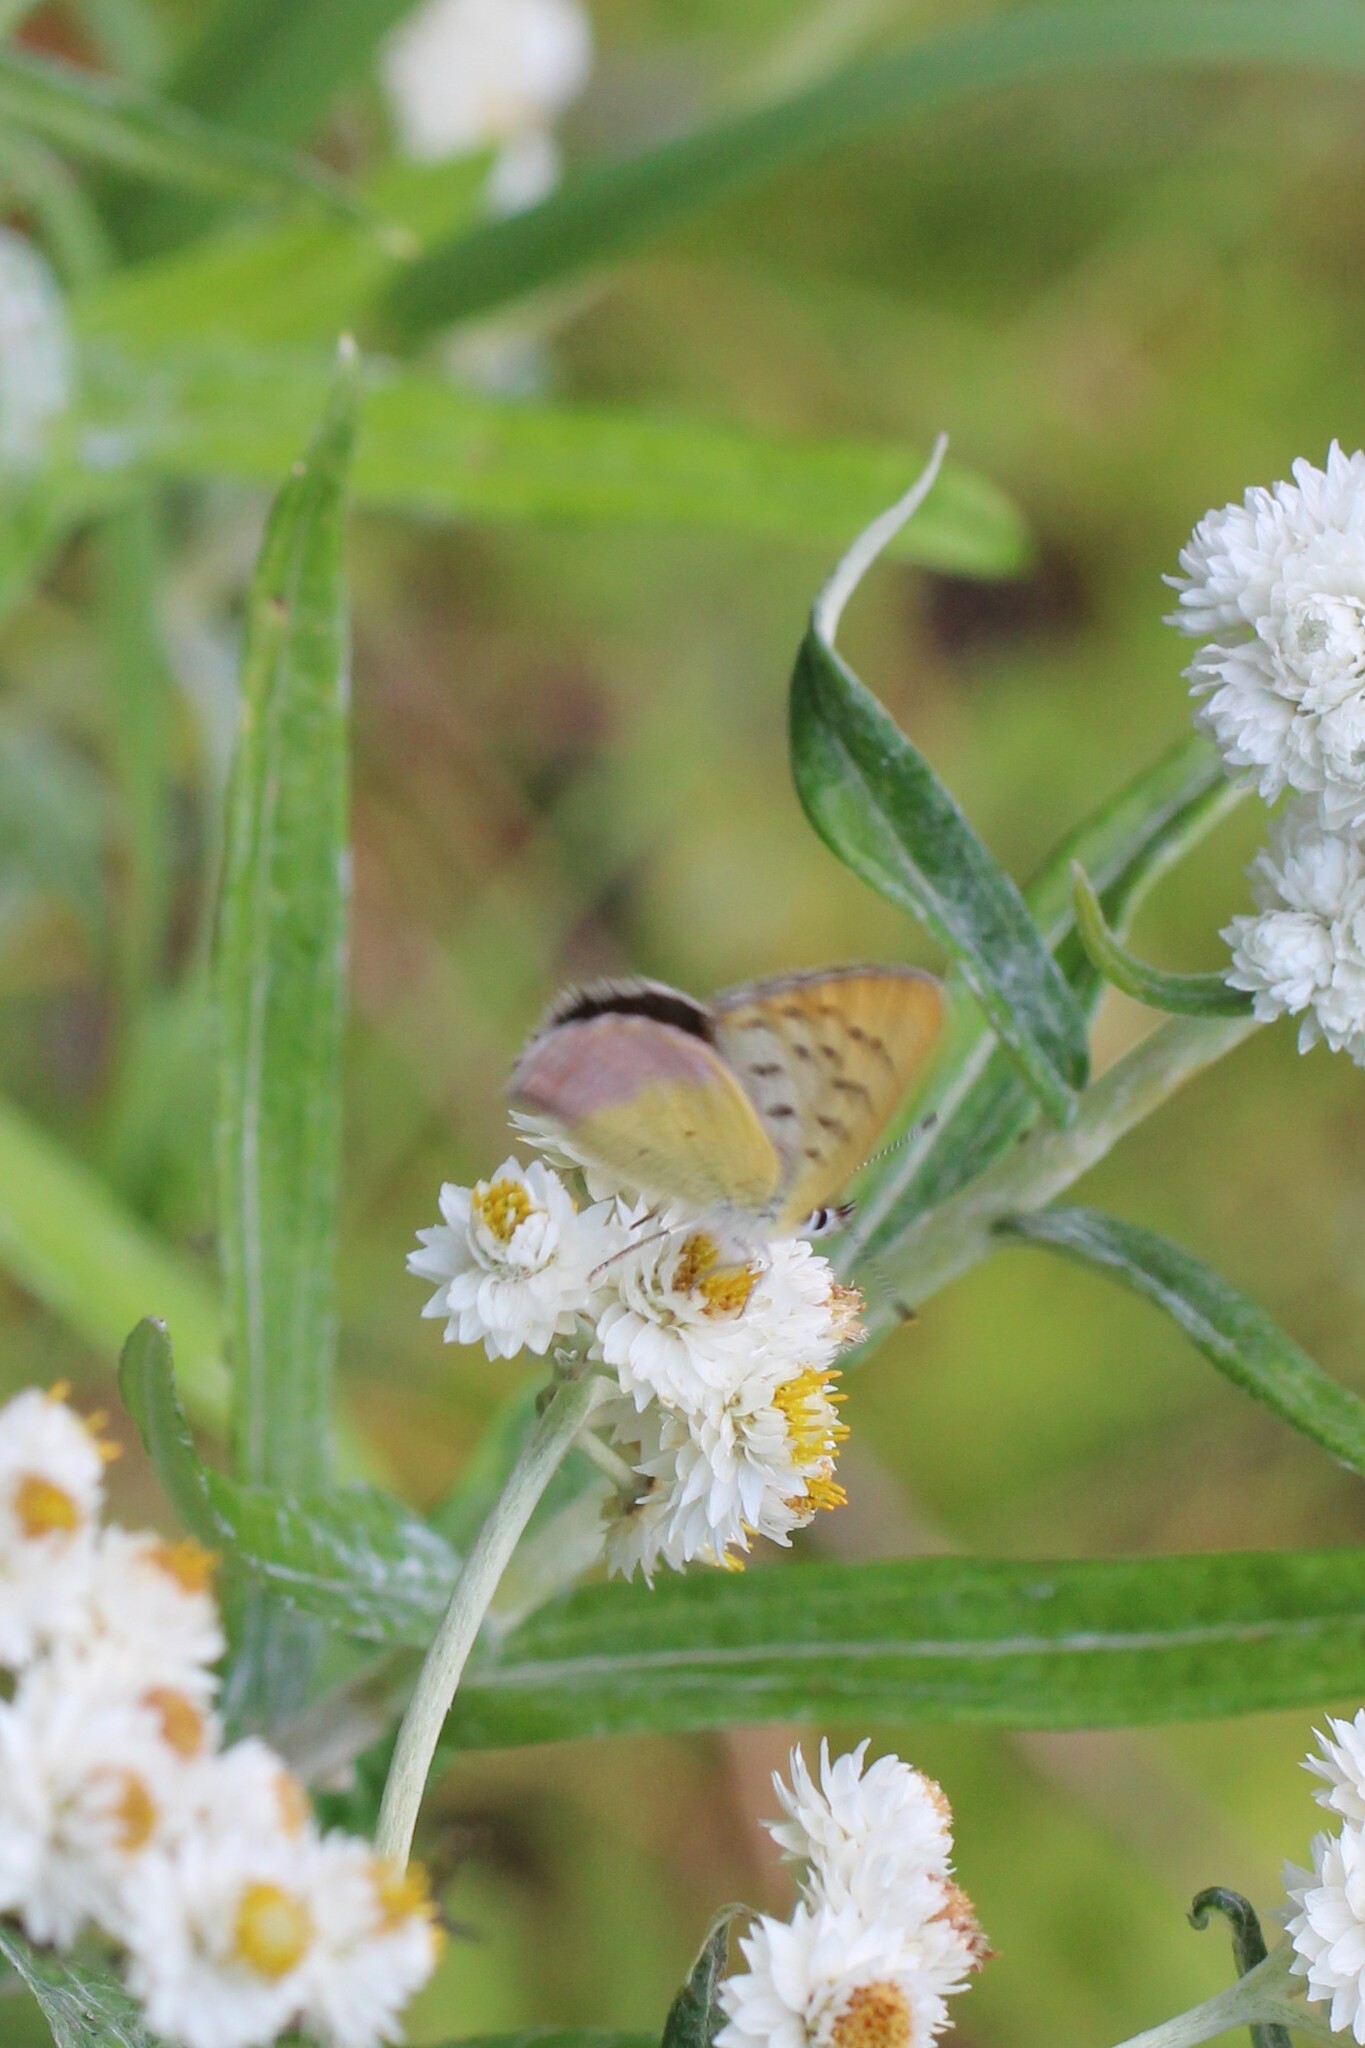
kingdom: Animalia
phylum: Arthropoda
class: Insecta
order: Lepidoptera
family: Lycaenidae
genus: Tharsalea
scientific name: Tharsalea nivalis
